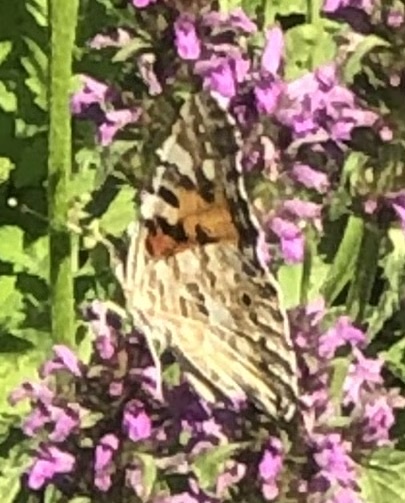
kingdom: Animalia
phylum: Arthropoda
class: Insecta
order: Lepidoptera
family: Nymphalidae
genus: Vanessa
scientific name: Vanessa cardui
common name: Painted lady
